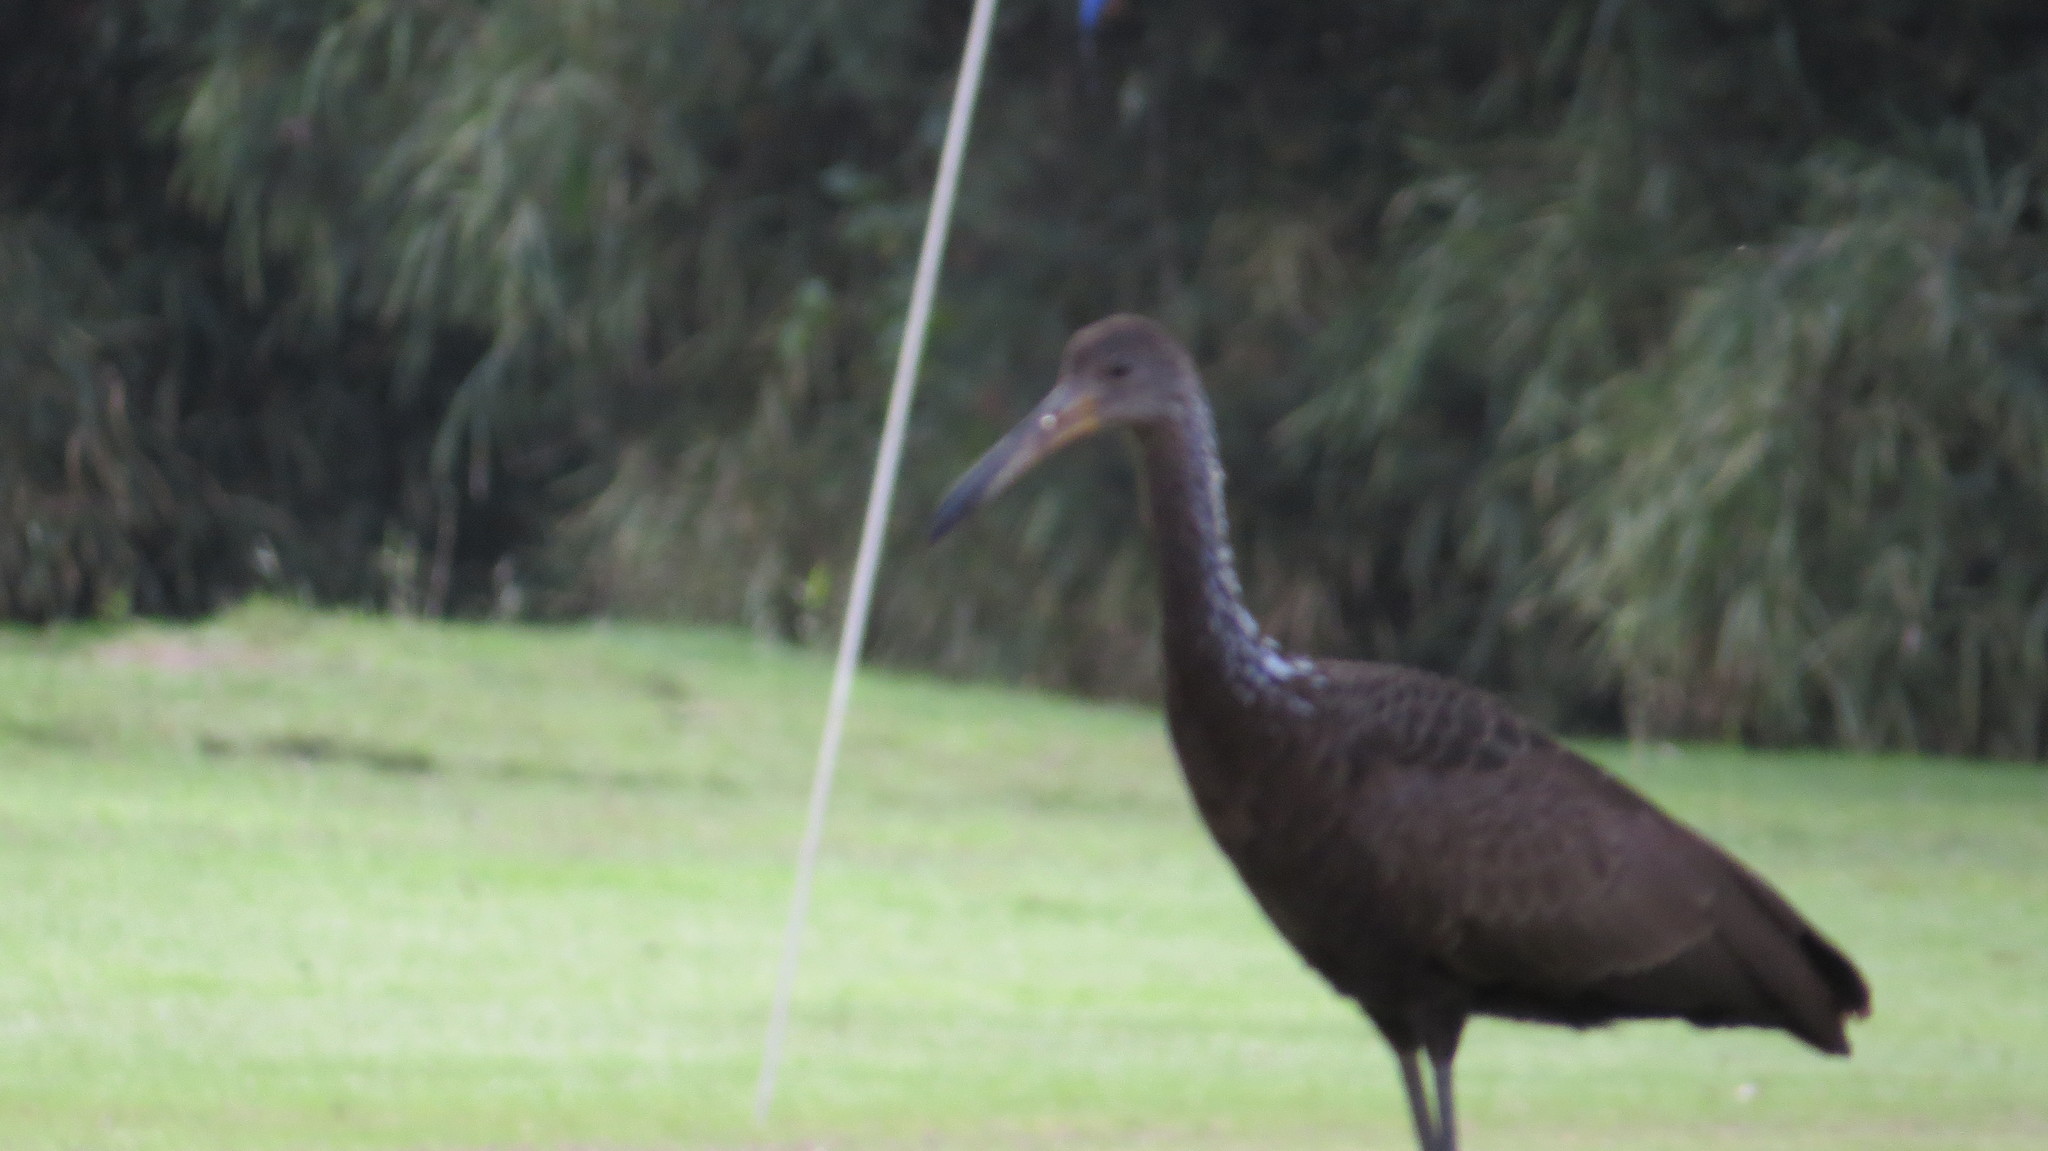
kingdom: Animalia
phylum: Chordata
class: Aves
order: Gruiformes
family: Aramidae
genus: Aramus
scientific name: Aramus guarauna
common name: Limpkin
